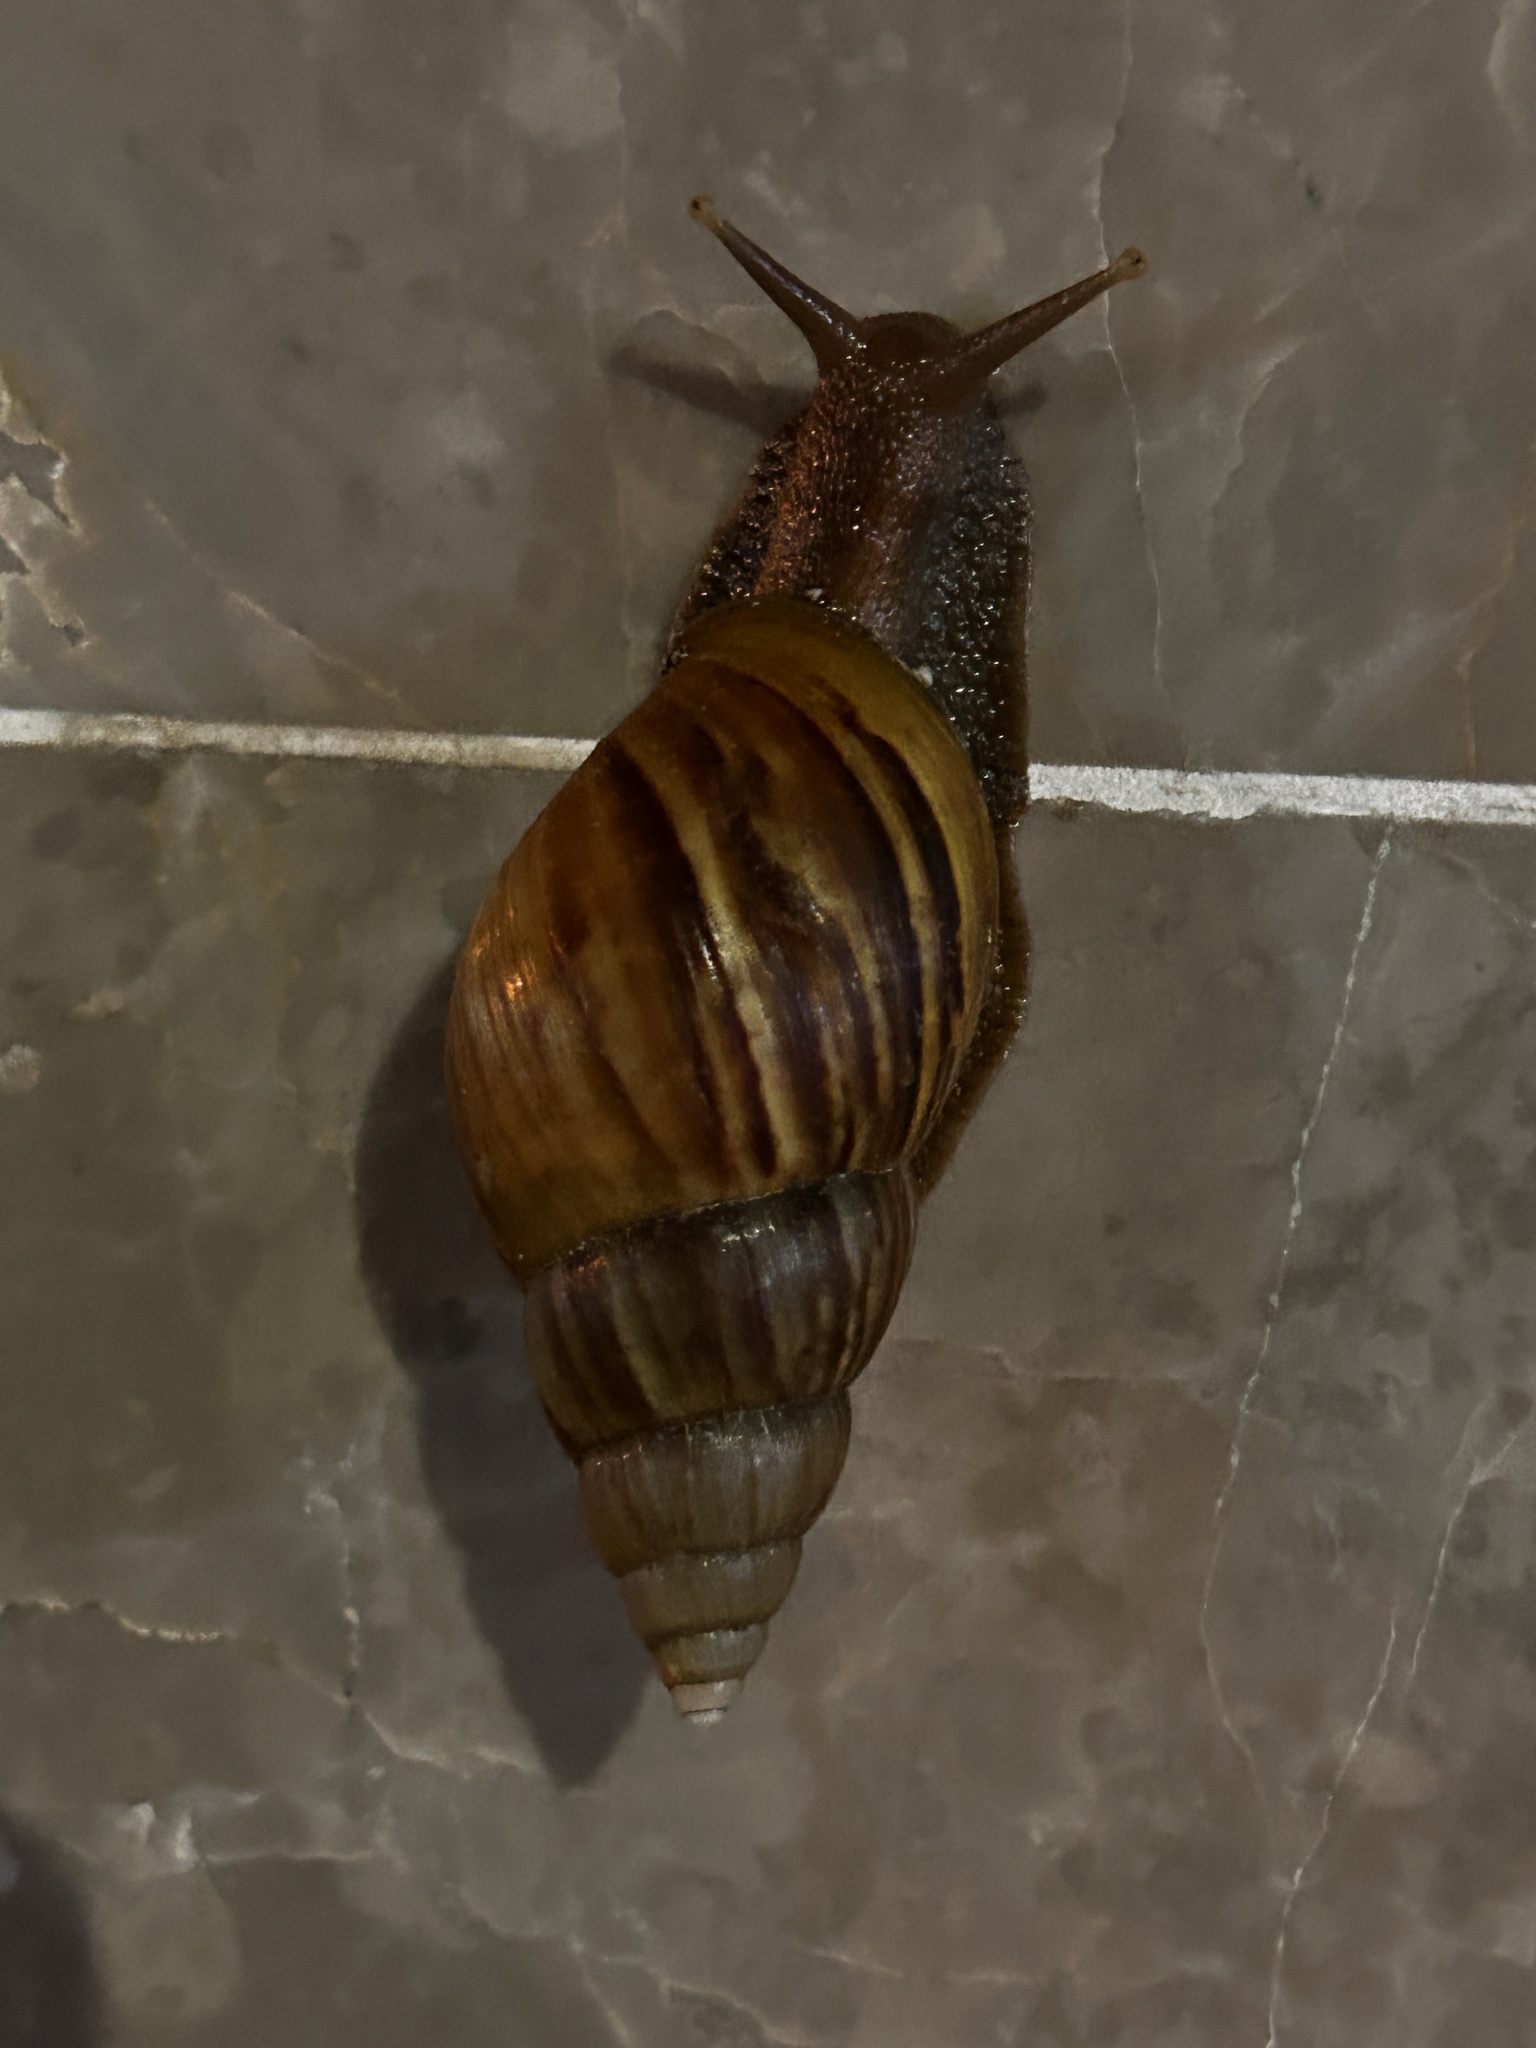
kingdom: Animalia
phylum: Mollusca
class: Gastropoda
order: Stylommatophora
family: Achatinidae
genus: Lissachatina
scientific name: Lissachatina fulica
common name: Giant african snail
